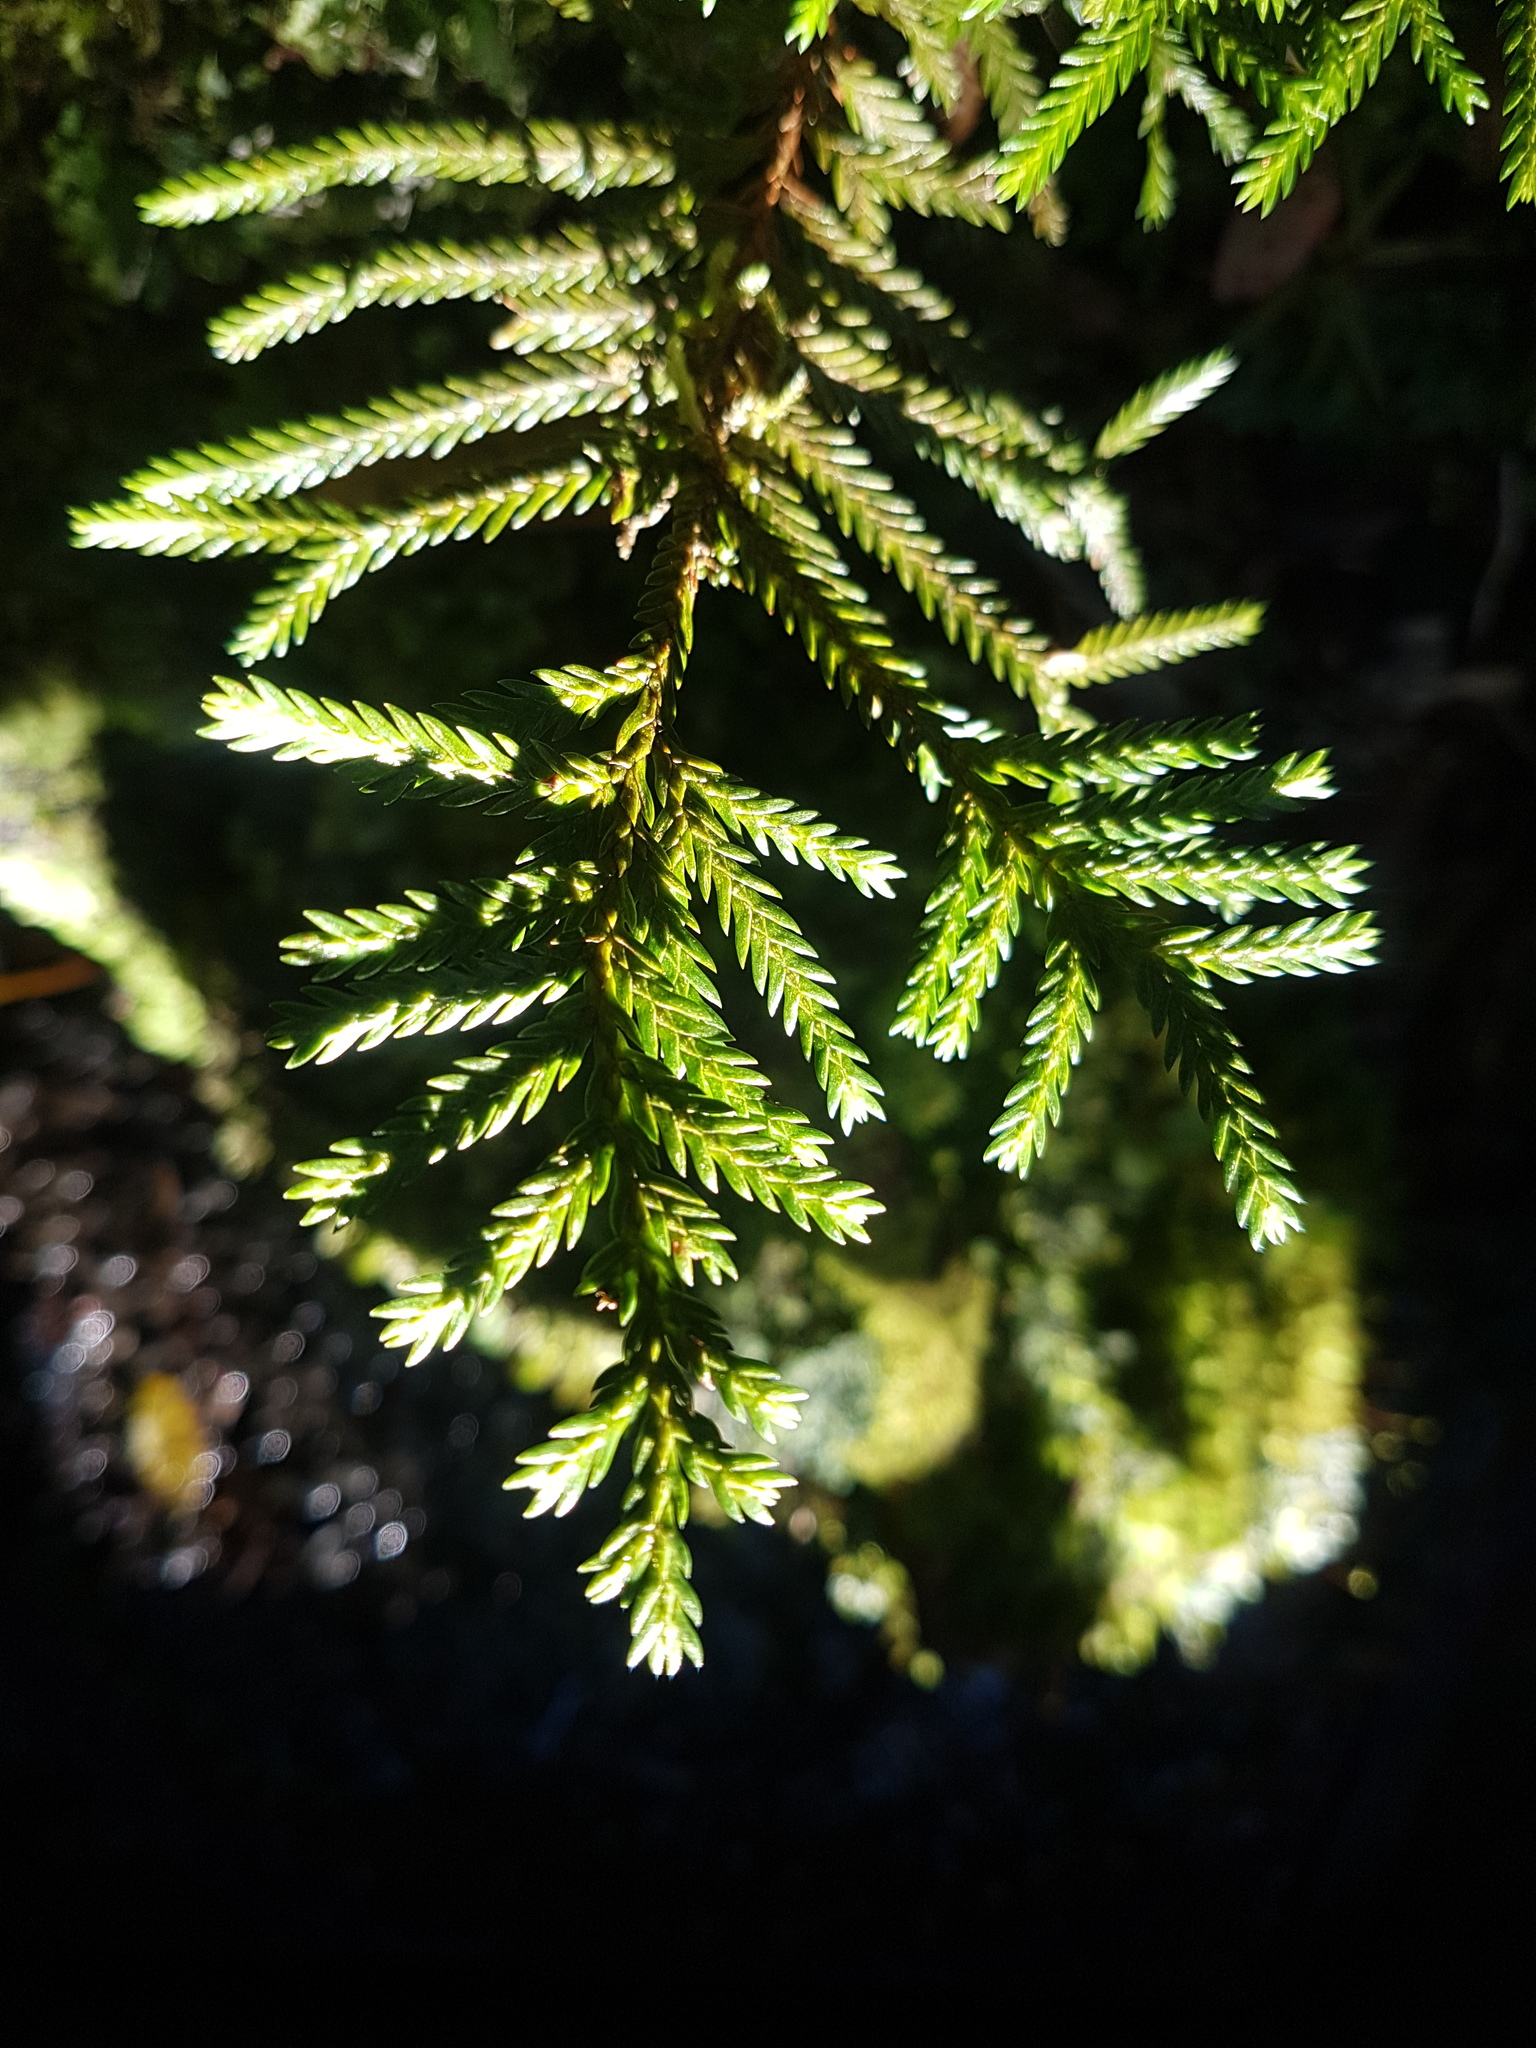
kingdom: Plantae
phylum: Tracheophyta
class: Pinopsida
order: Pinales
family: Cupressaceae
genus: Libocedrus
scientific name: Libocedrus bidwillii
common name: Cedar
